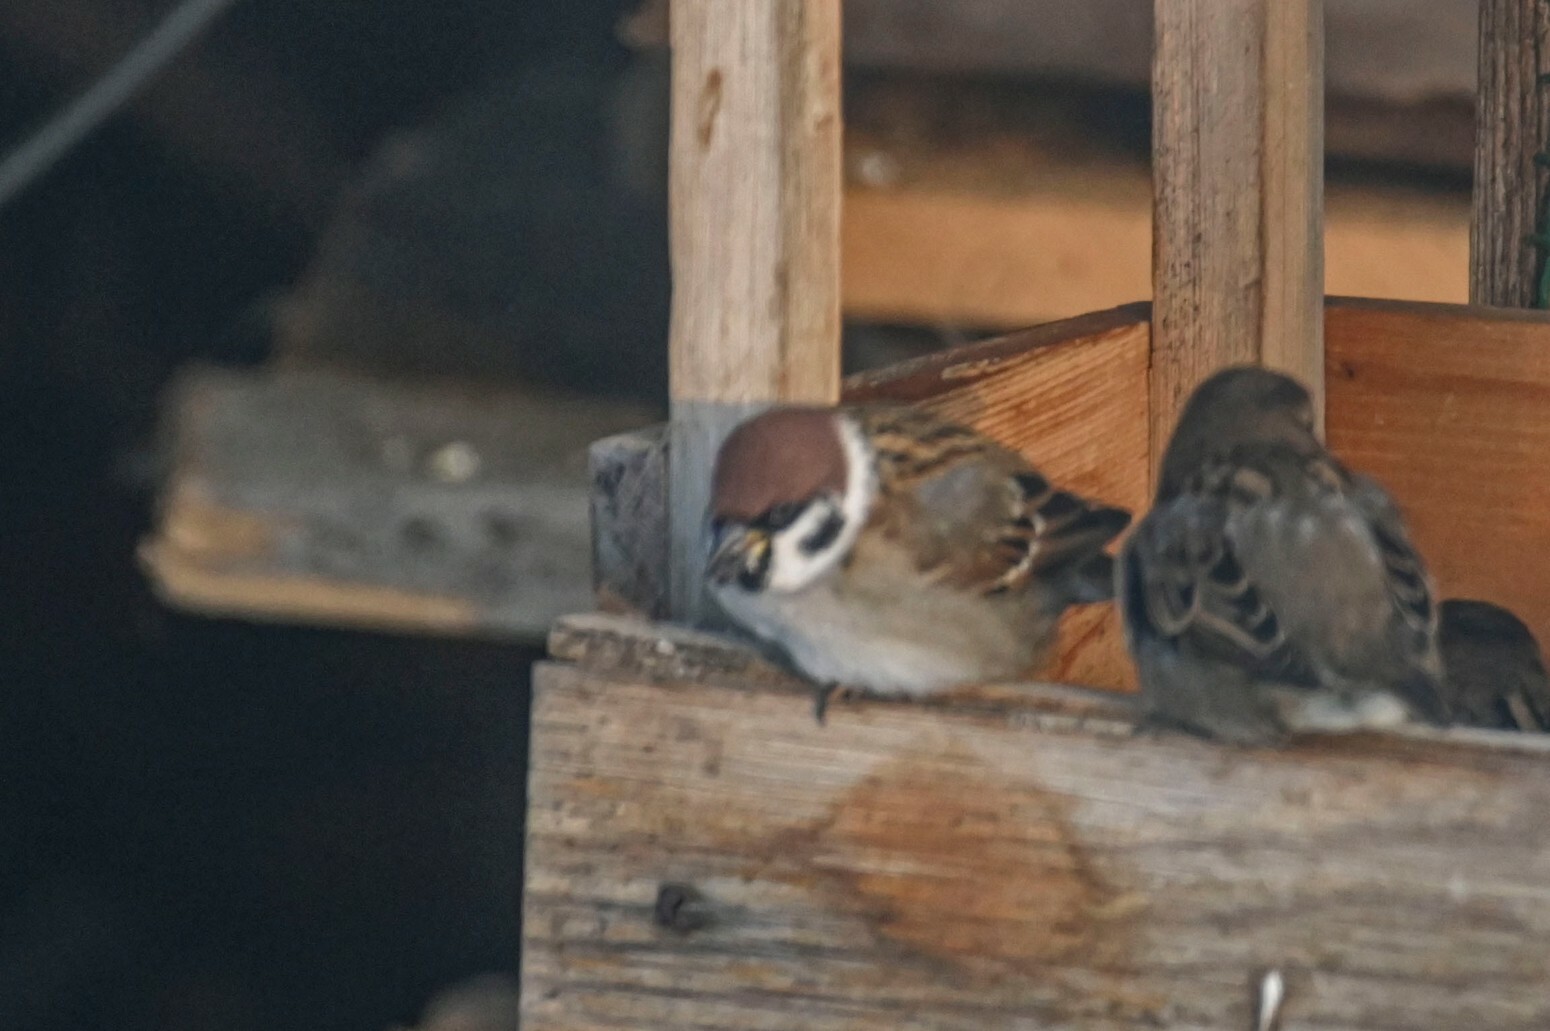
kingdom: Animalia
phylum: Chordata
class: Aves
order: Passeriformes
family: Passeridae
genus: Passer
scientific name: Passer montanus
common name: Eurasian tree sparrow
